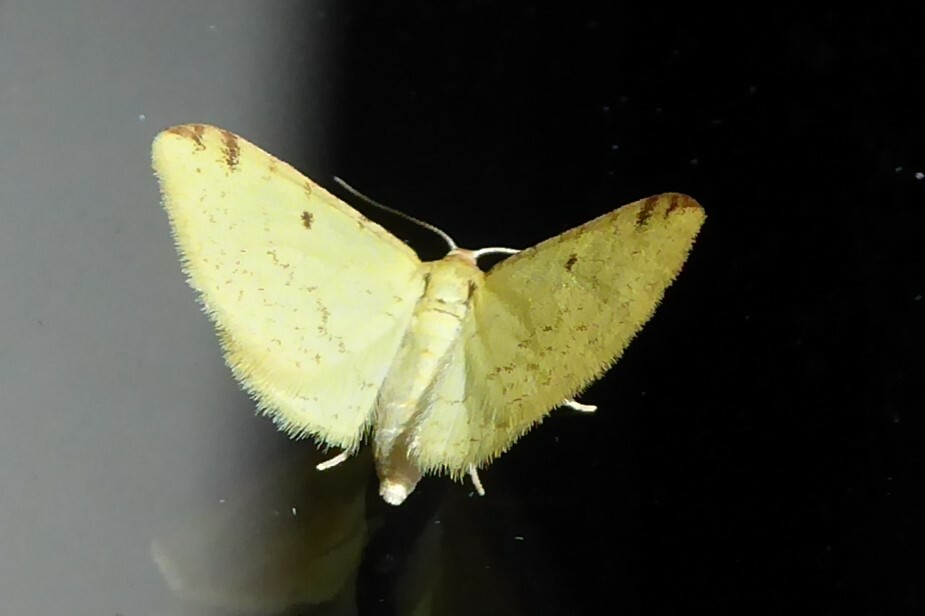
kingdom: Animalia
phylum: Arthropoda
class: Insecta
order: Lepidoptera
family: Geometridae
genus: Epiphryne
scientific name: Epiphryne undosata
